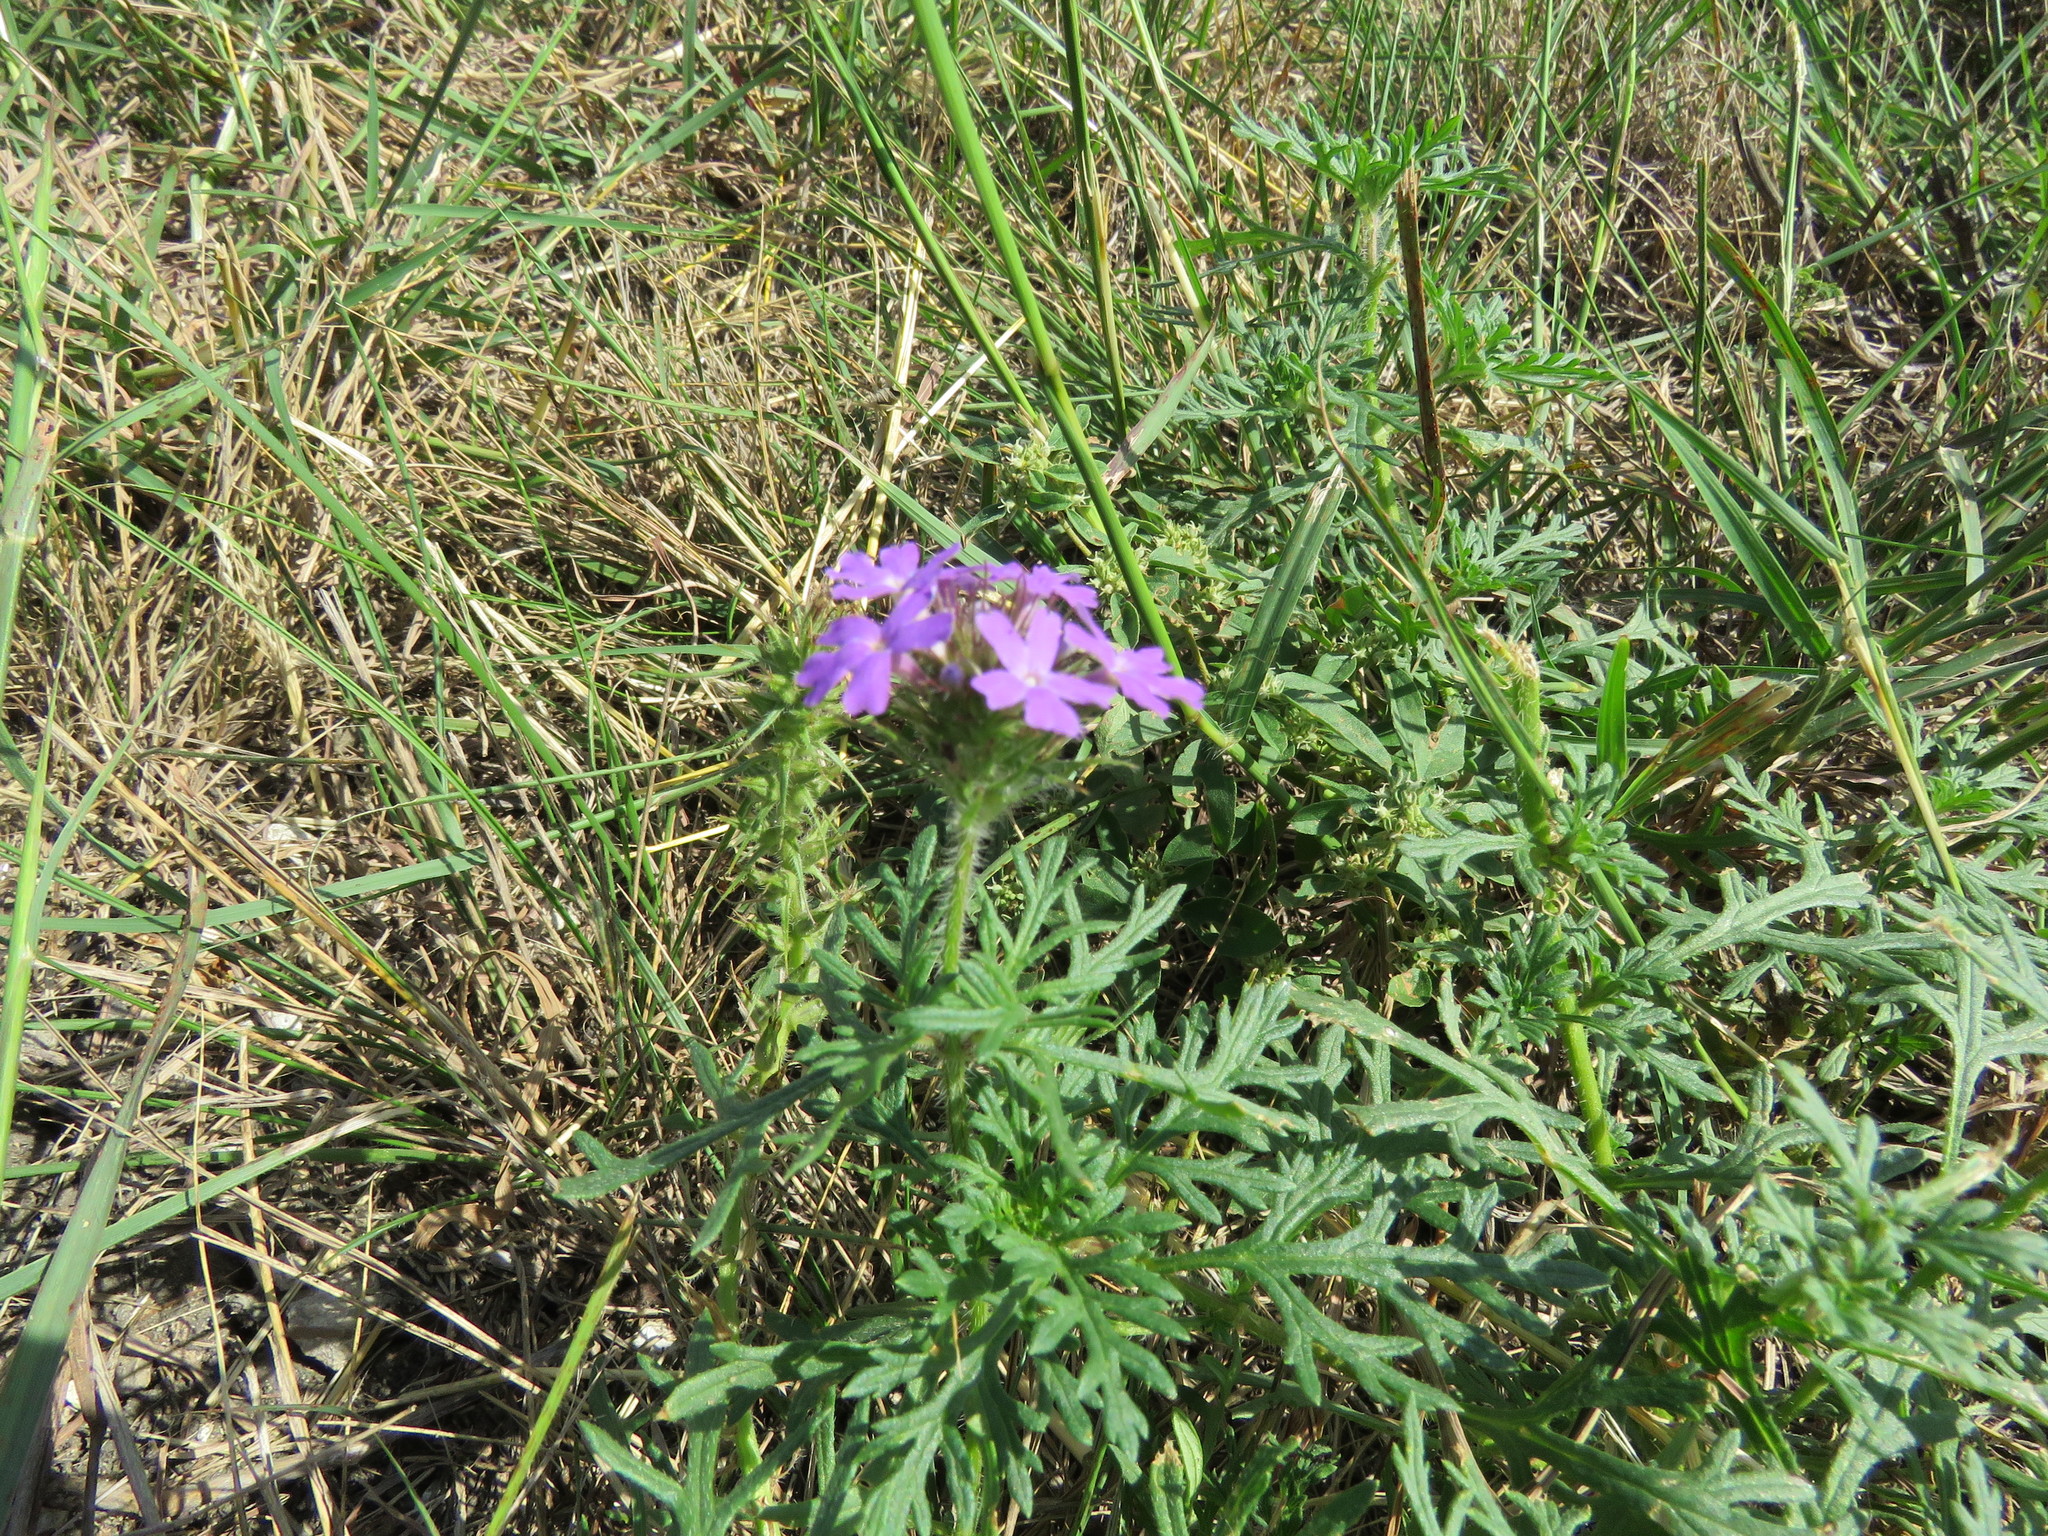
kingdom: Plantae
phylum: Tracheophyta
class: Magnoliopsida
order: Lamiales
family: Verbenaceae
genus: Verbena
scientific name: Verbena bipinnatifida
